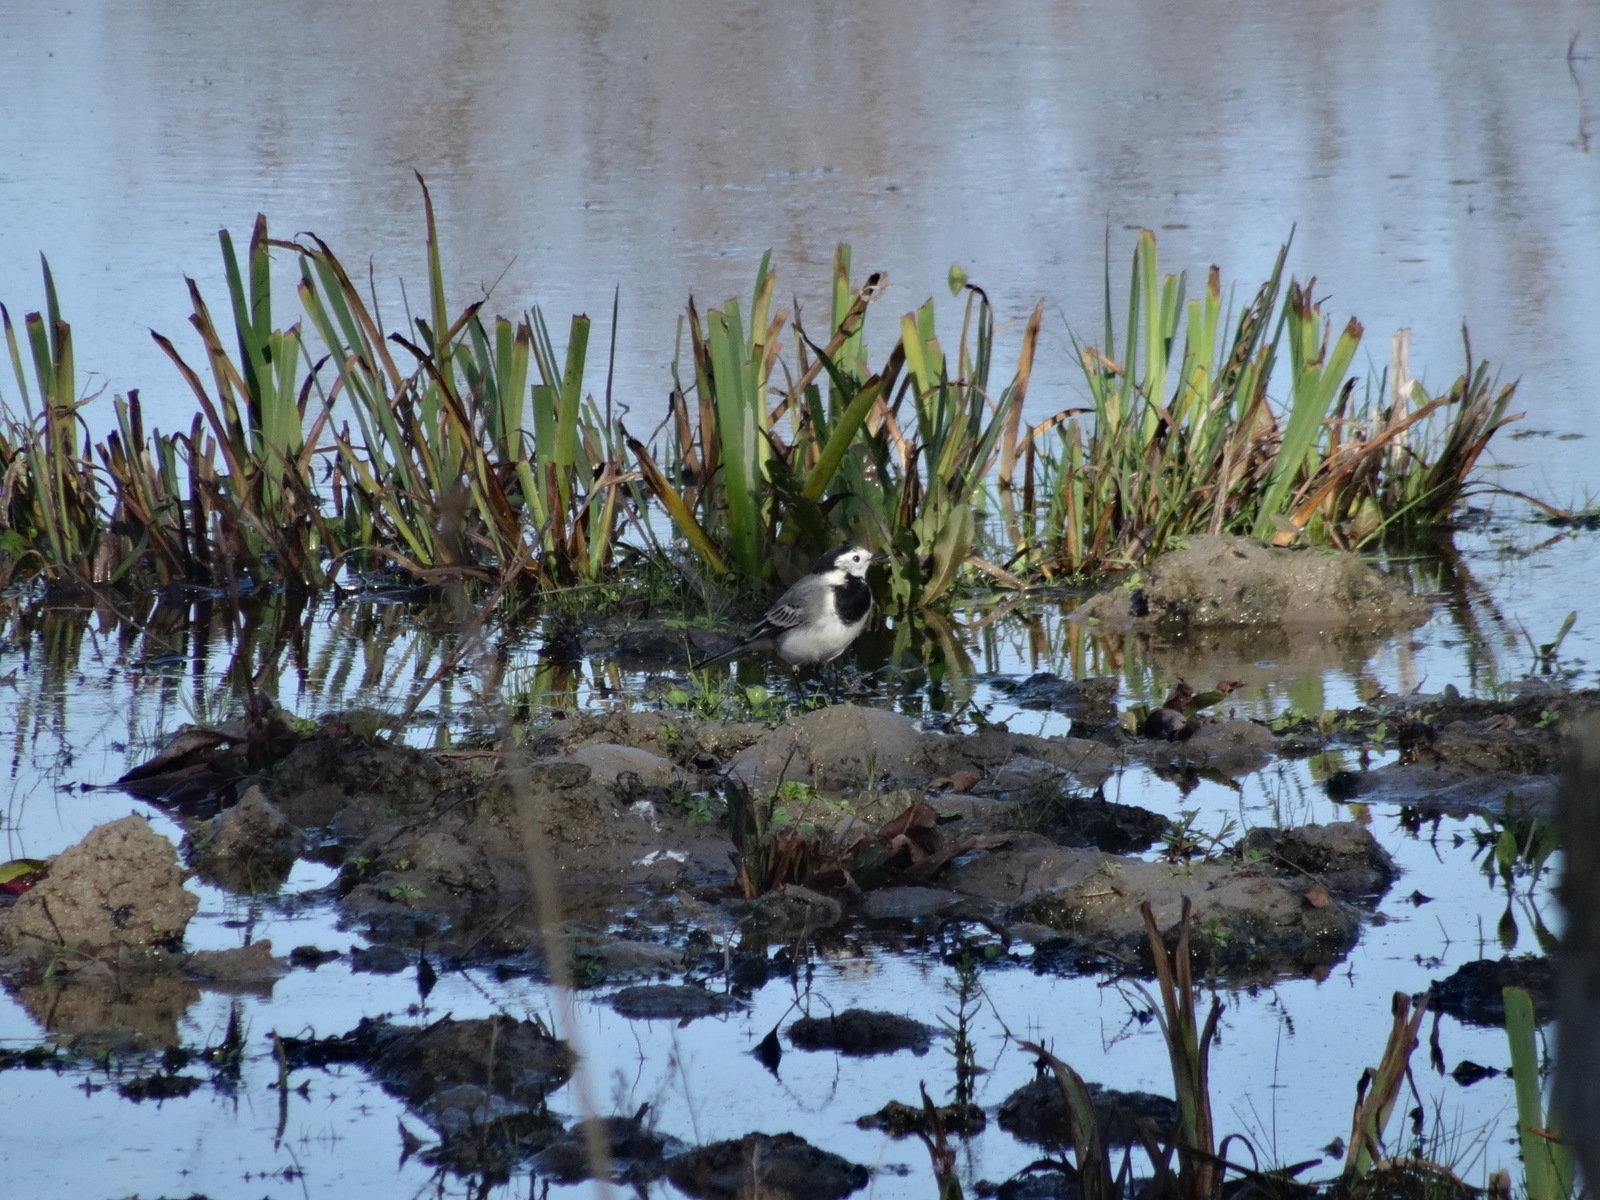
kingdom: Animalia
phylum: Chordata
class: Aves
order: Passeriformes
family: Motacillidae
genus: Motacilla
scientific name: Motacilla alba
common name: White wagtail
